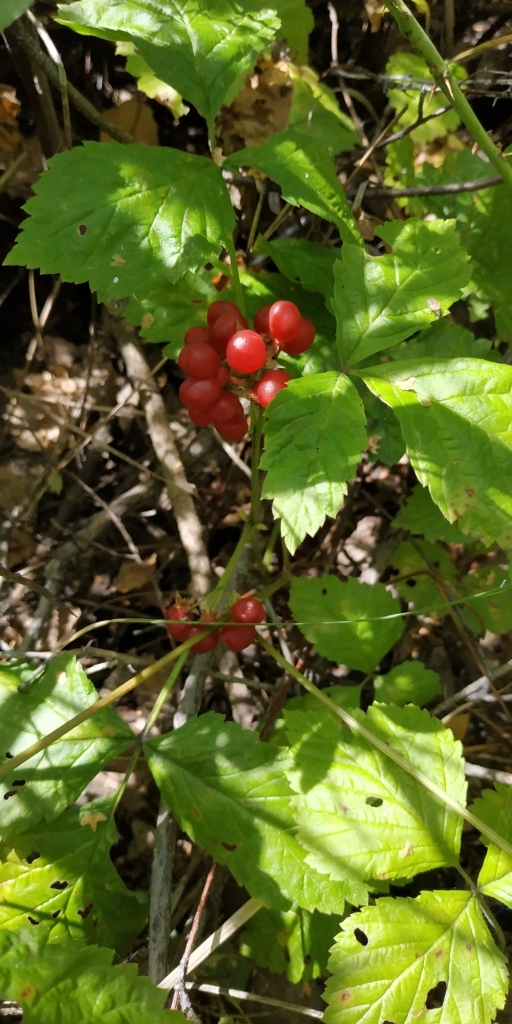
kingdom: Plantae
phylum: Tracheophyta
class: Magnoliopsida
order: Rosales
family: Rosaceae
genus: Rubus
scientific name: Rubus saxatilis
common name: Stone bramble
